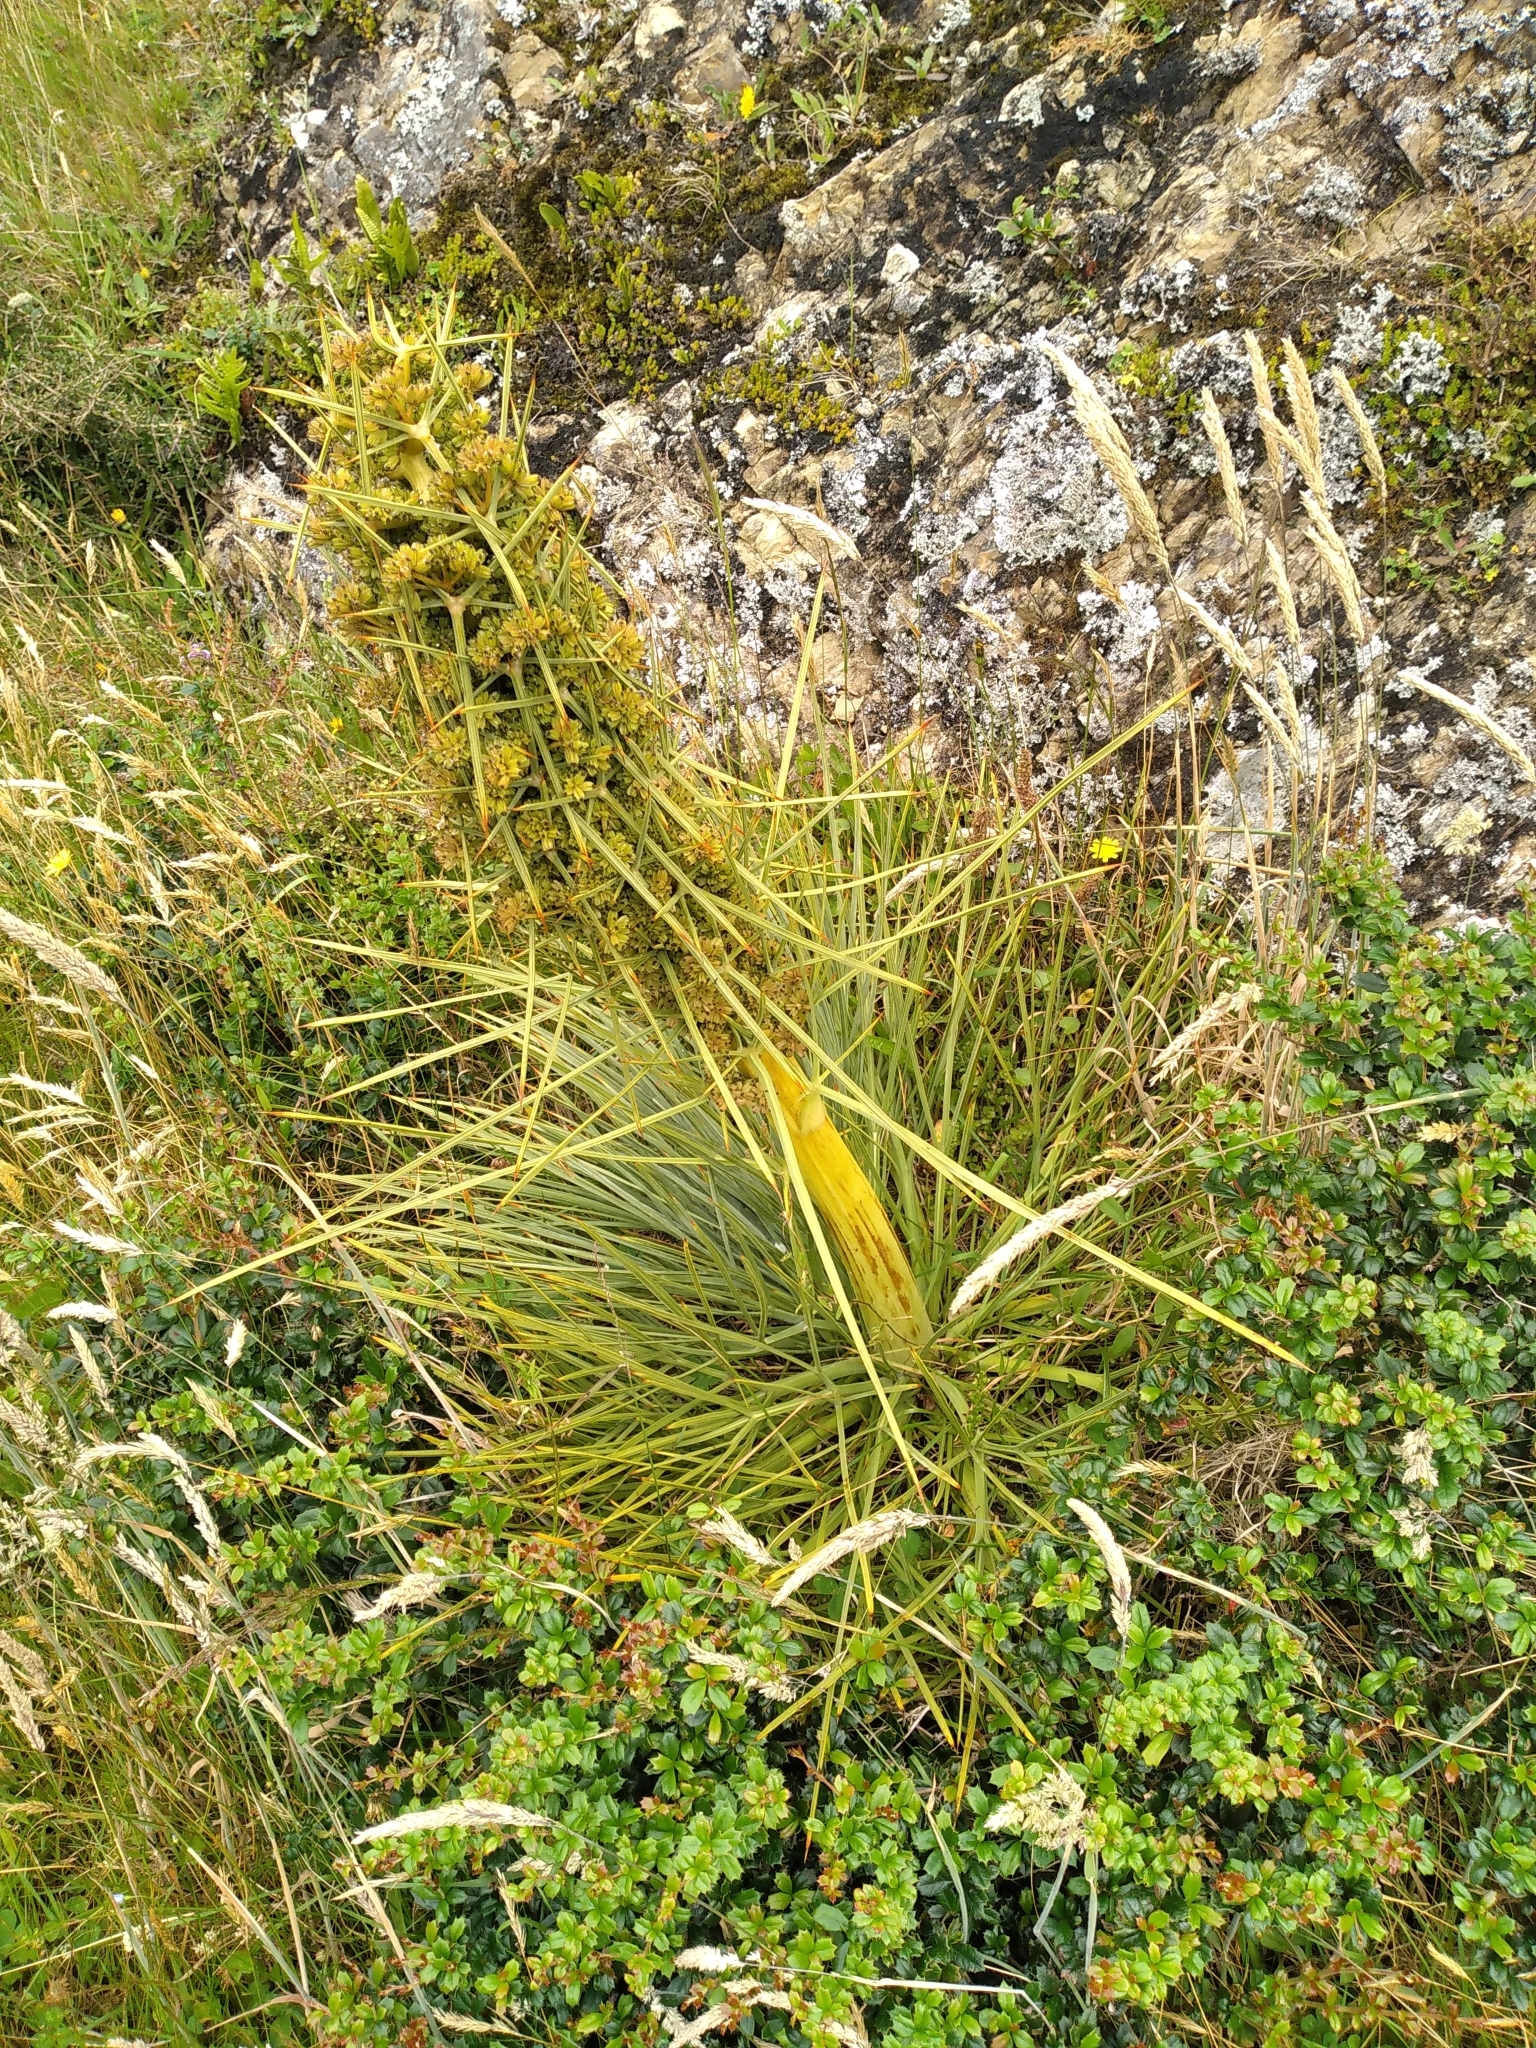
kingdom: Plantae
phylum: Tracheophyta
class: Magnoliopsida
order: Apiales
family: Apiaceae
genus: Aciphylla
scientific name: Aciphylla squarrosa
